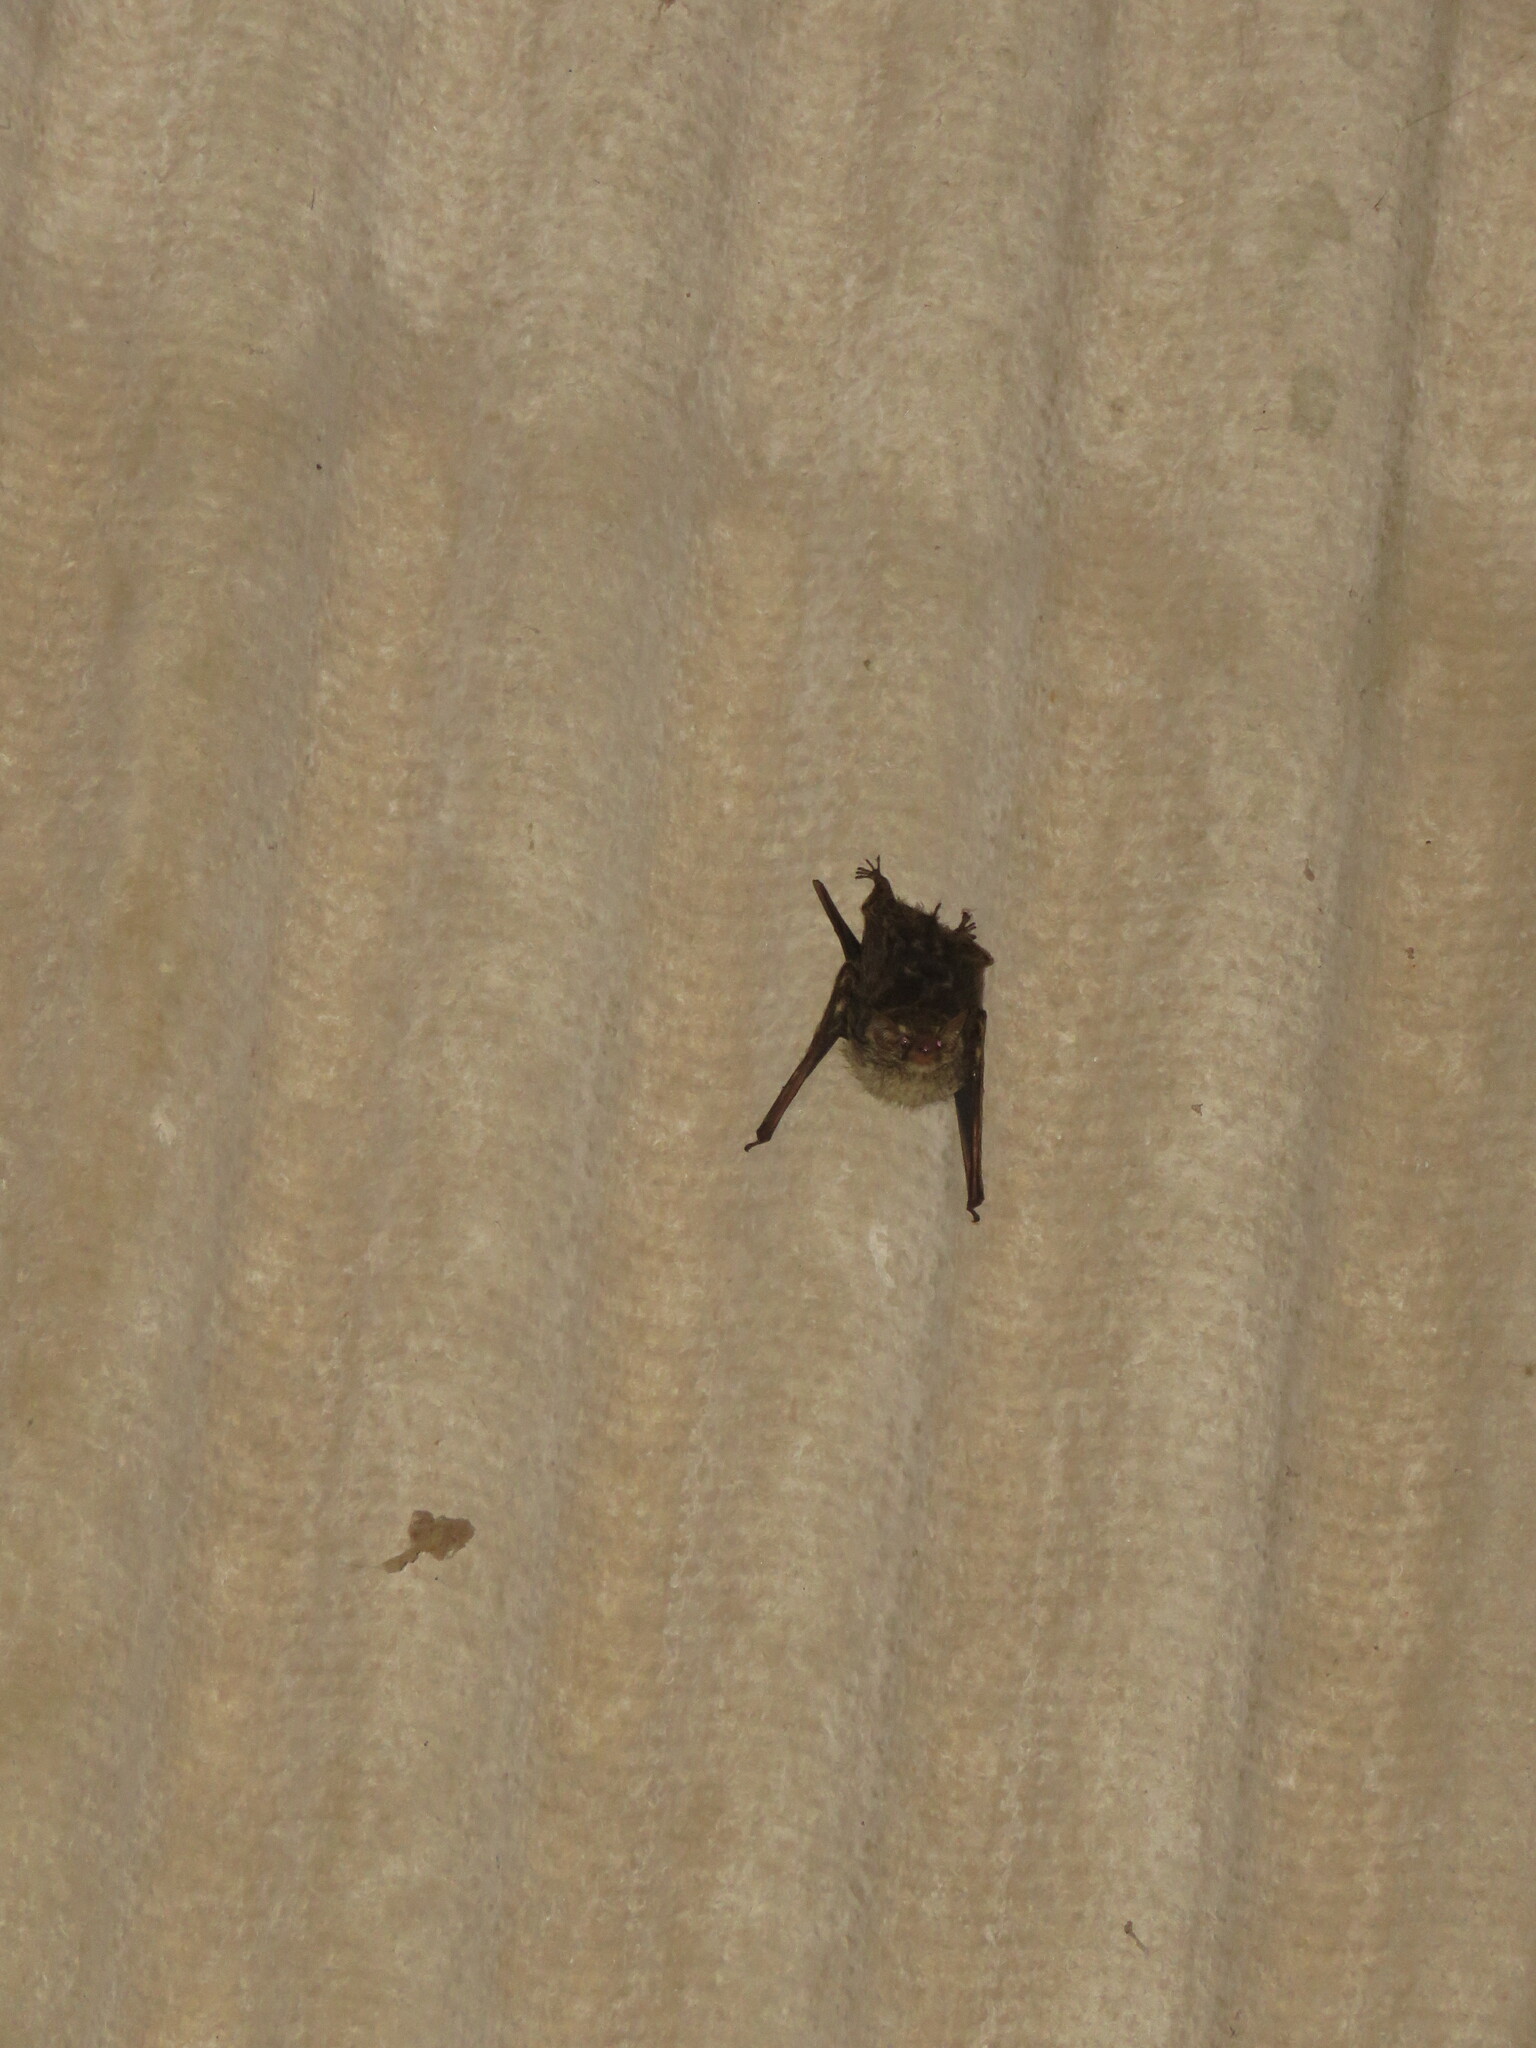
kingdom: Animalia
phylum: Chordata
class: Mammalia
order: Chiroptera
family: Emballonuridae
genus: Rhynchonycteris
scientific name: Rhynchonycteris naso
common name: Proboscis bat
